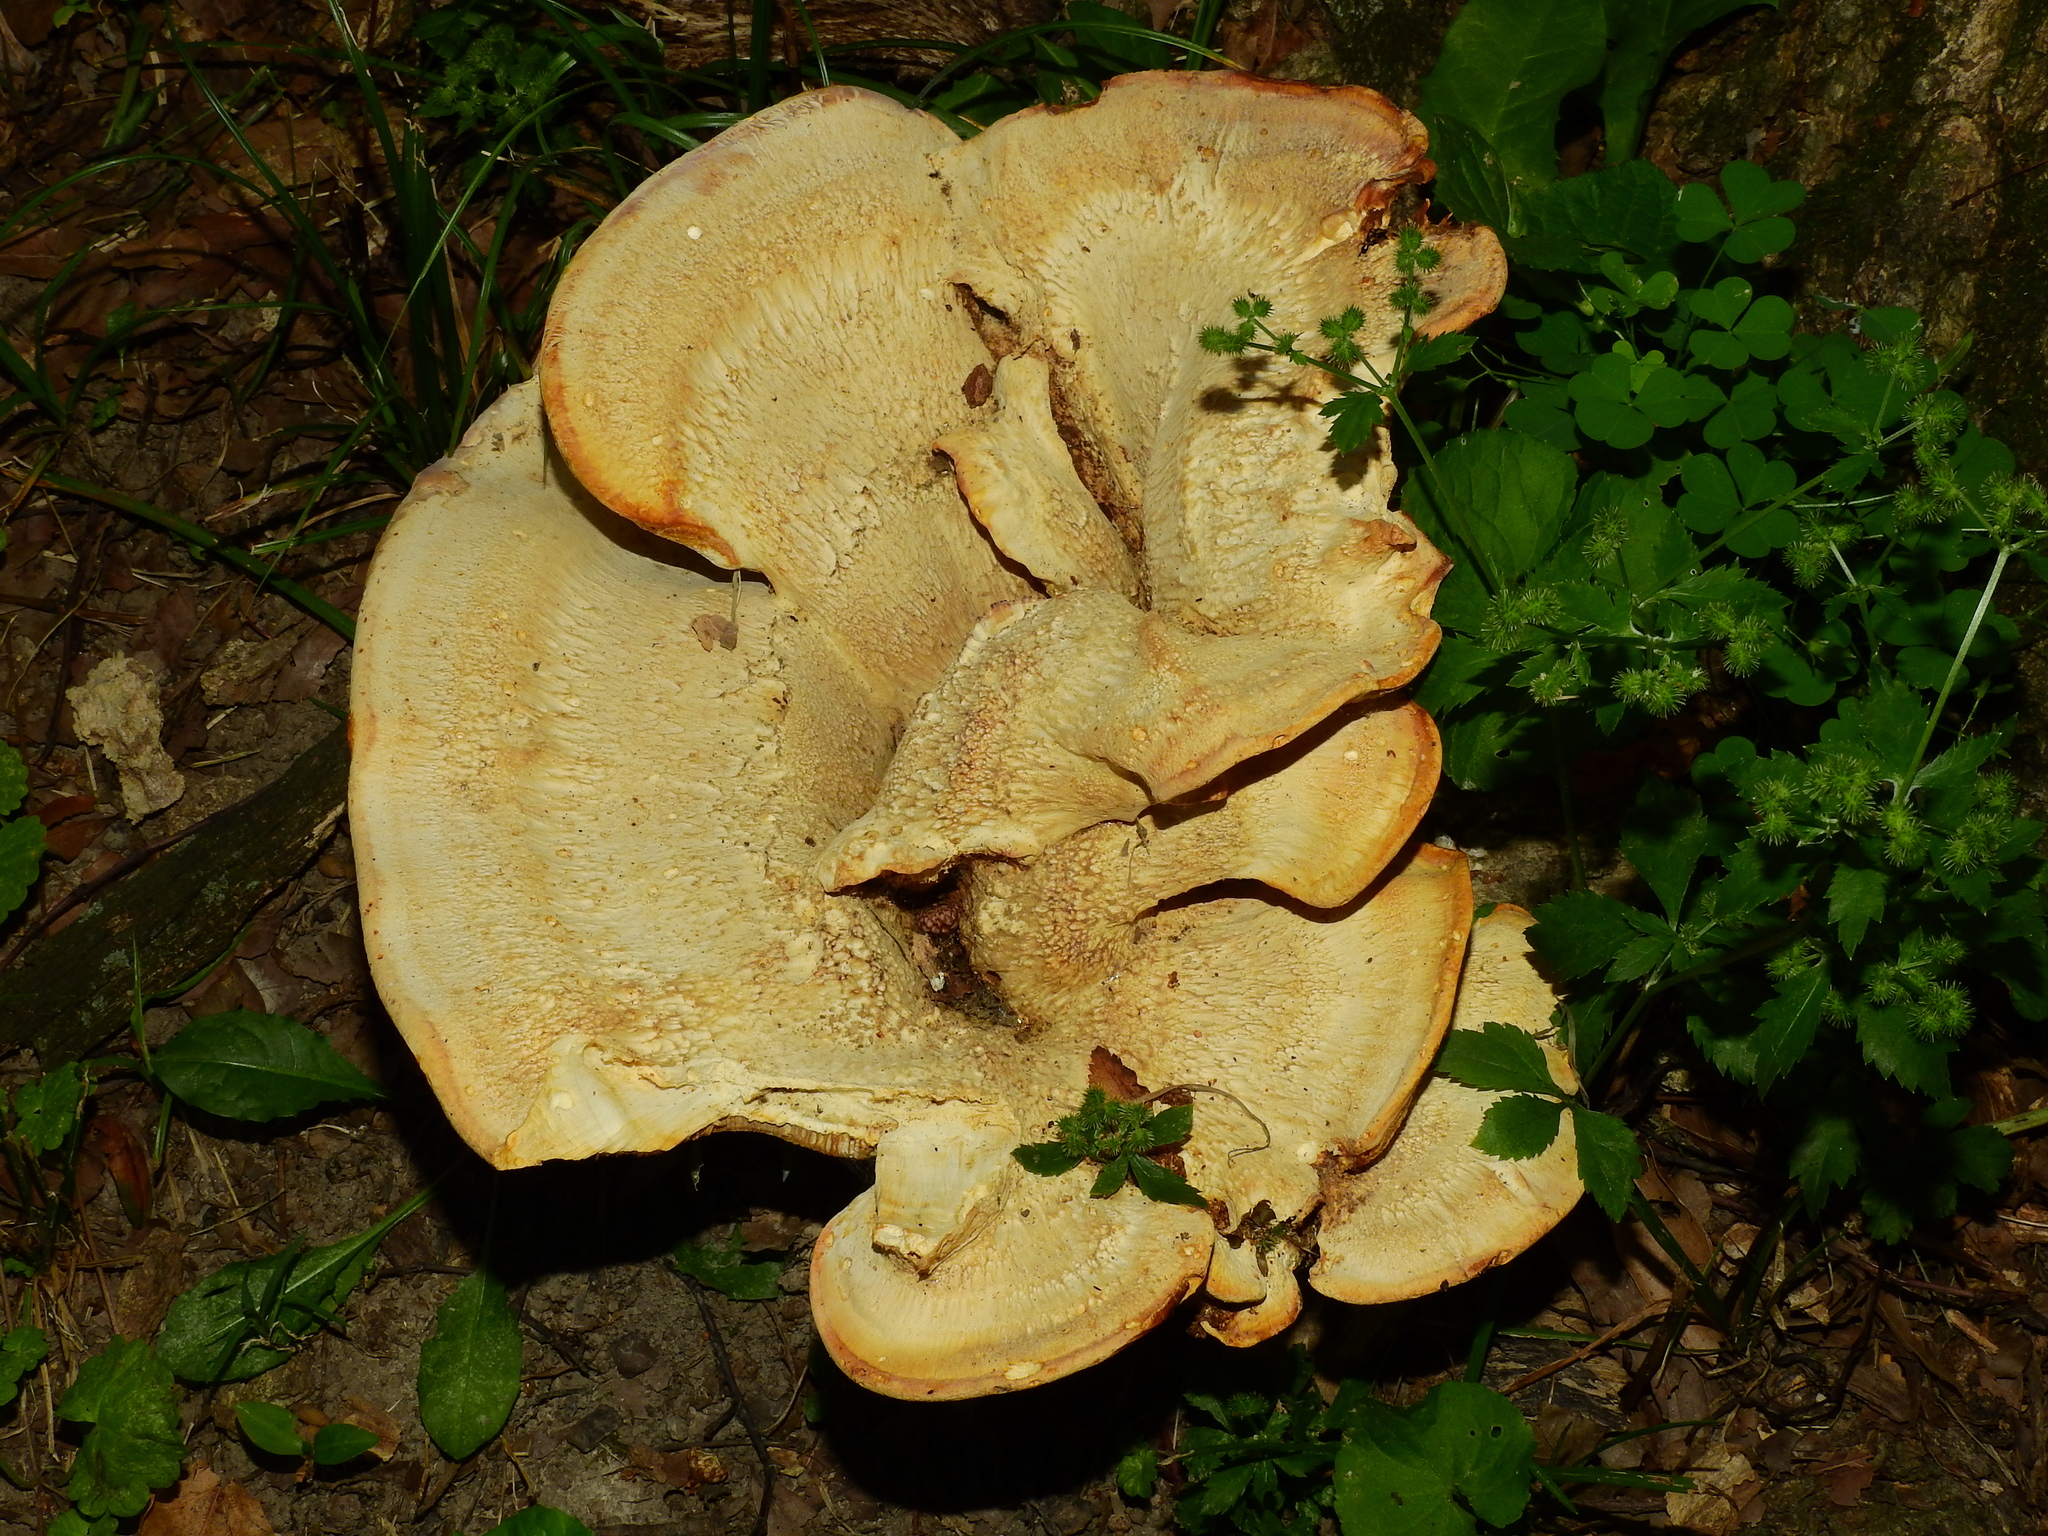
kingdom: Fungi
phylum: Basidiomycota
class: Agaricomycetes
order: Russulales
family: Bondarzewiaceae
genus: Bondarzewia
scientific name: Bondarzewia berkeleyi
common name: Berkeley's polypore
